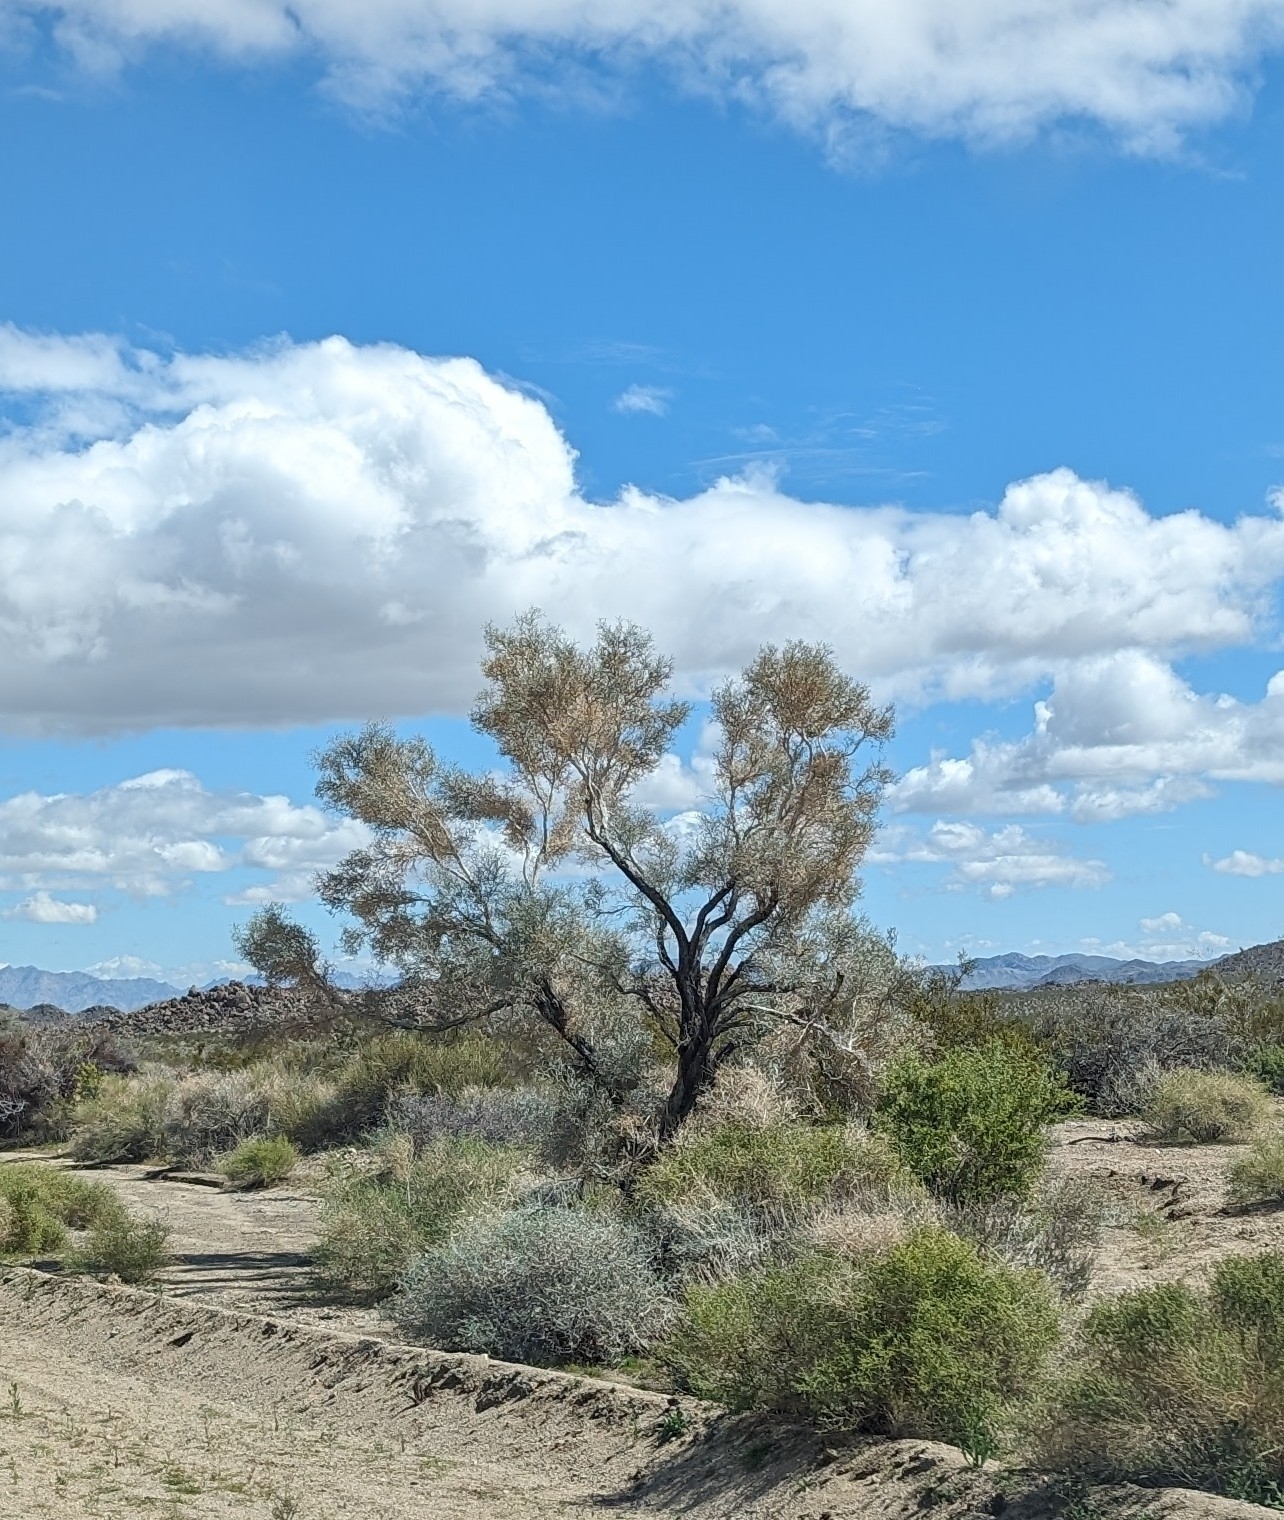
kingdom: Plantae
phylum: Tracheophyta
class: Magnoliopsida
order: Fabales
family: Fabaceae
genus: Psorothamnus
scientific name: Psorothamnus spinosus
